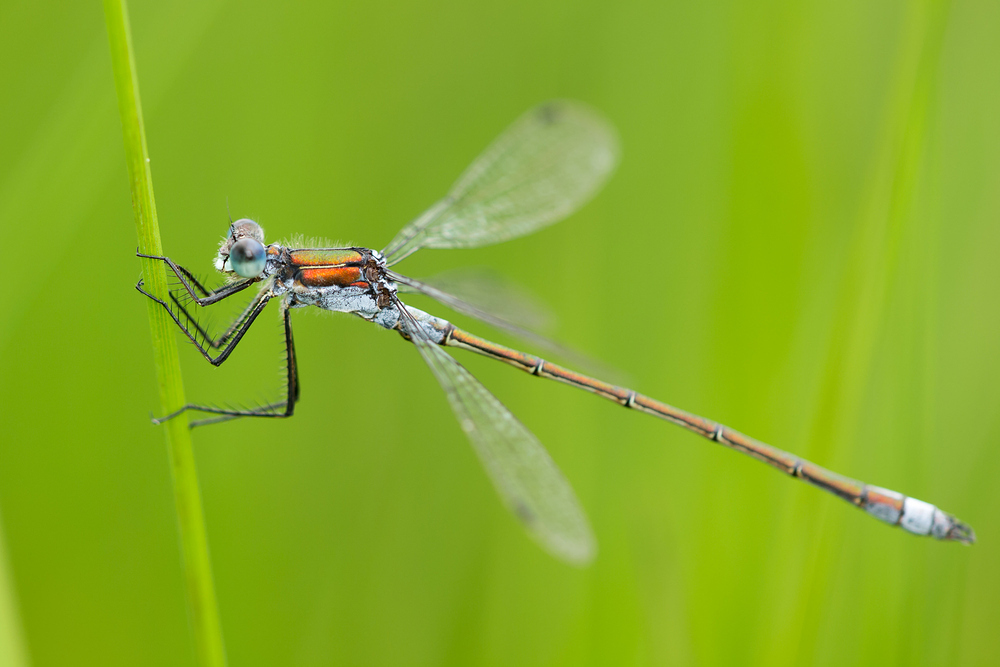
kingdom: Animalia
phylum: Arthropoda
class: Insecta
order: Odonata
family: Lestidae
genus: Lestes
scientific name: Lestes sponsa
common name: Common spreadwing
